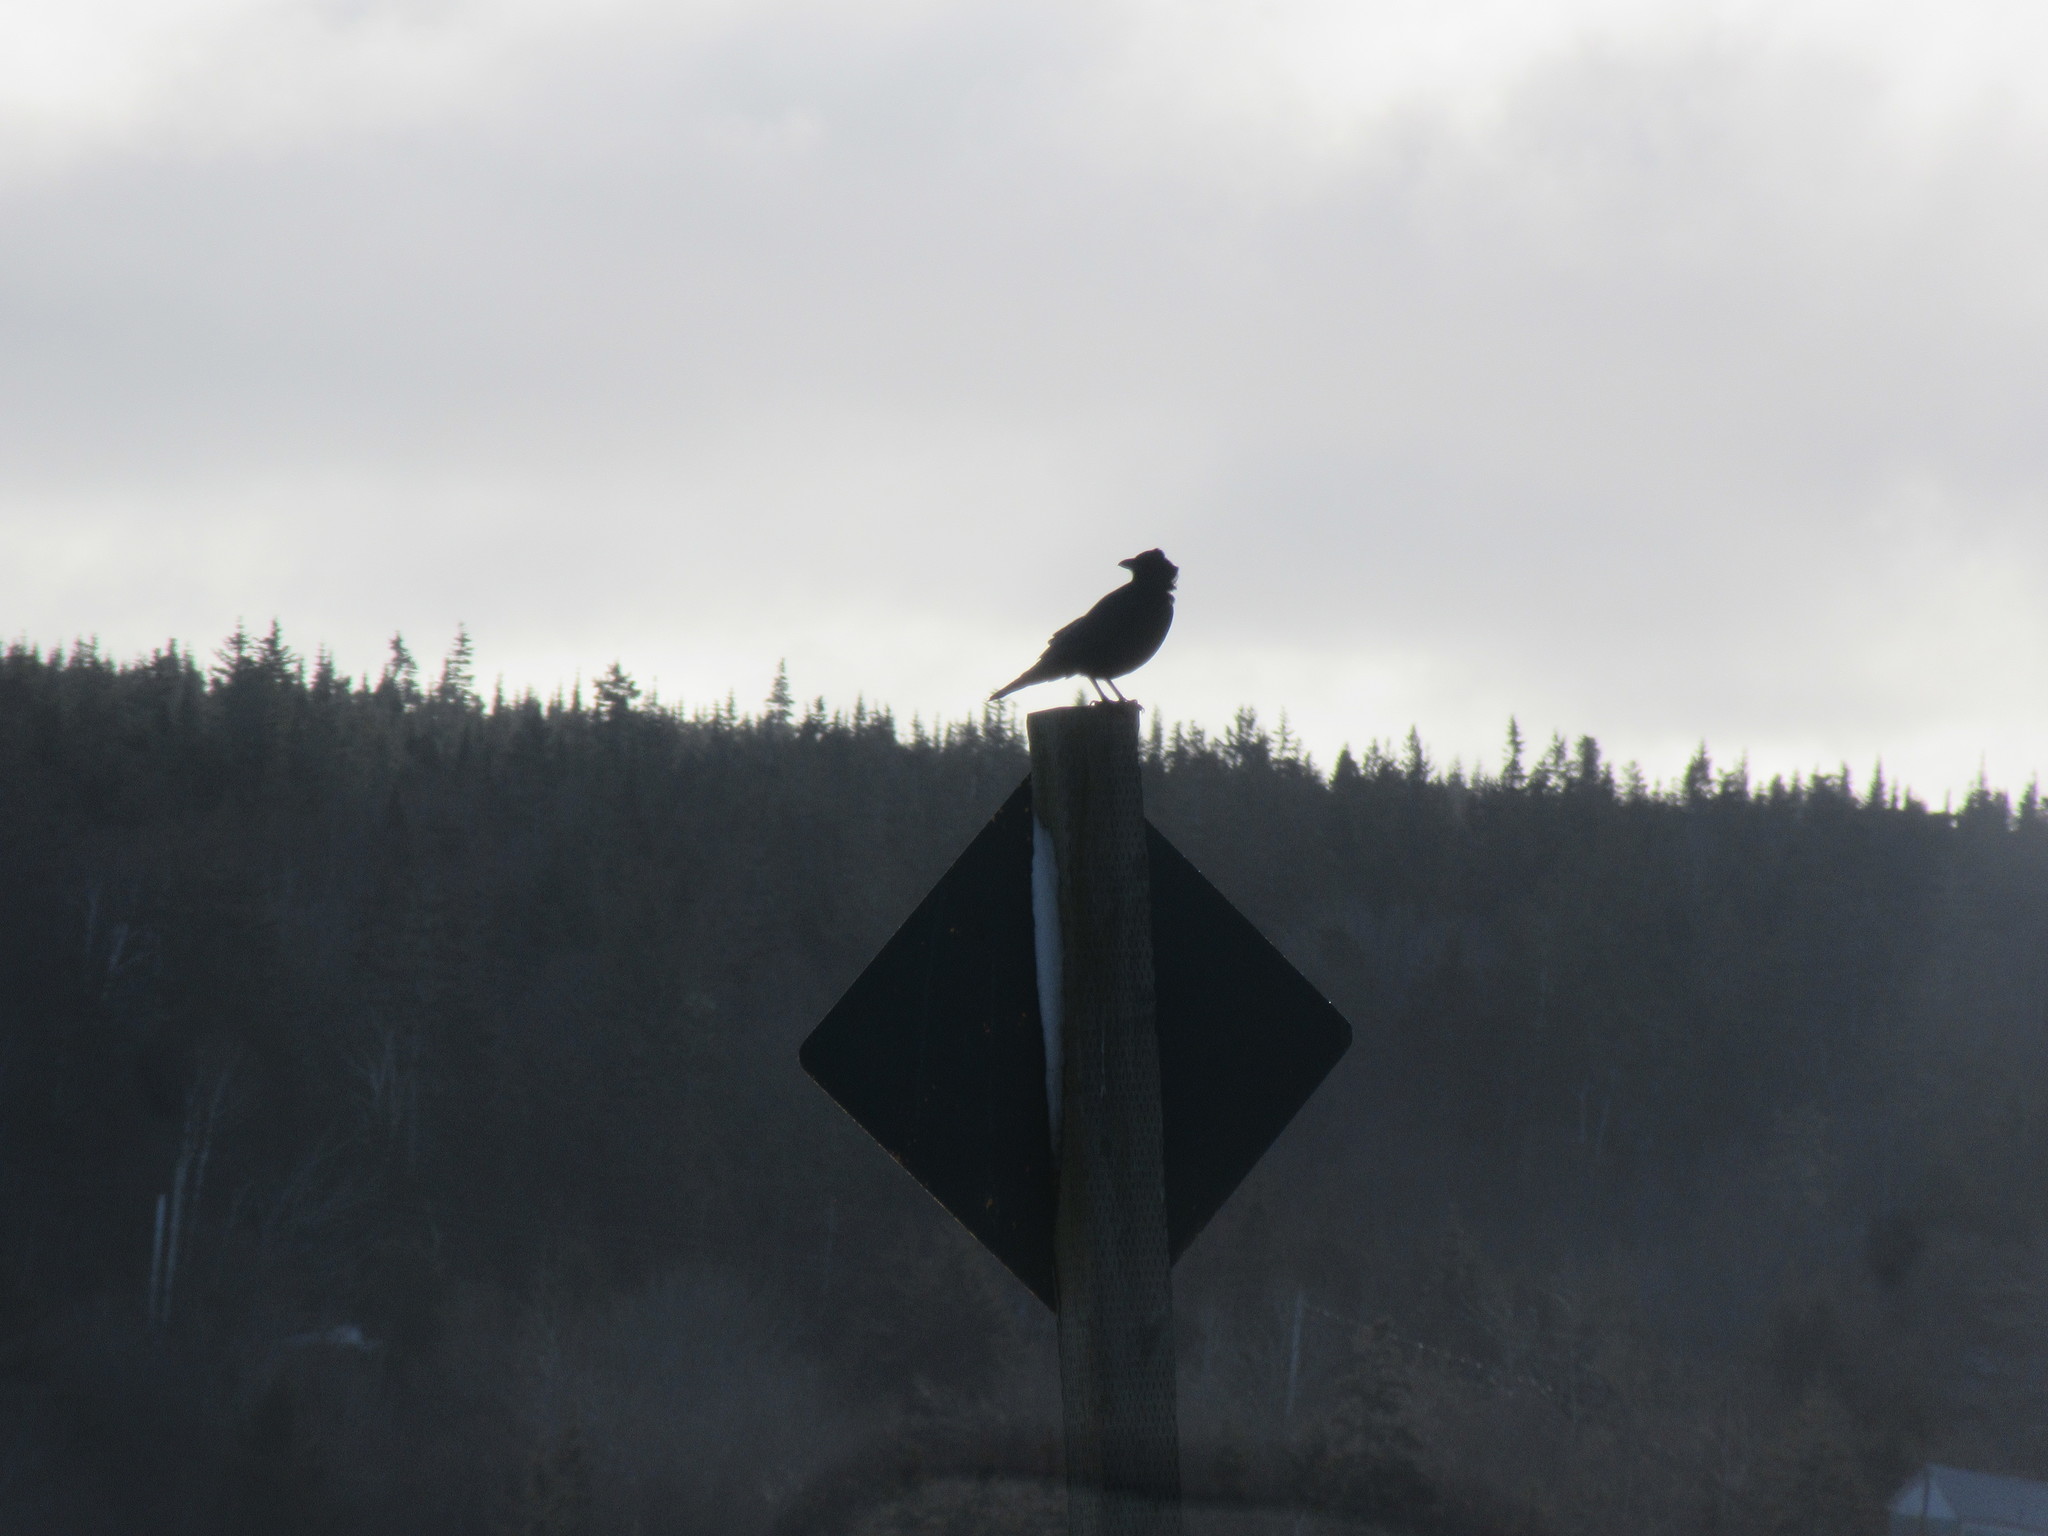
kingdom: Animalia
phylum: Chordata
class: Aves
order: Passeriformes
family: Corvidae
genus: Corvus
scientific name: Corvus brachyrhynchos
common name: American crow
